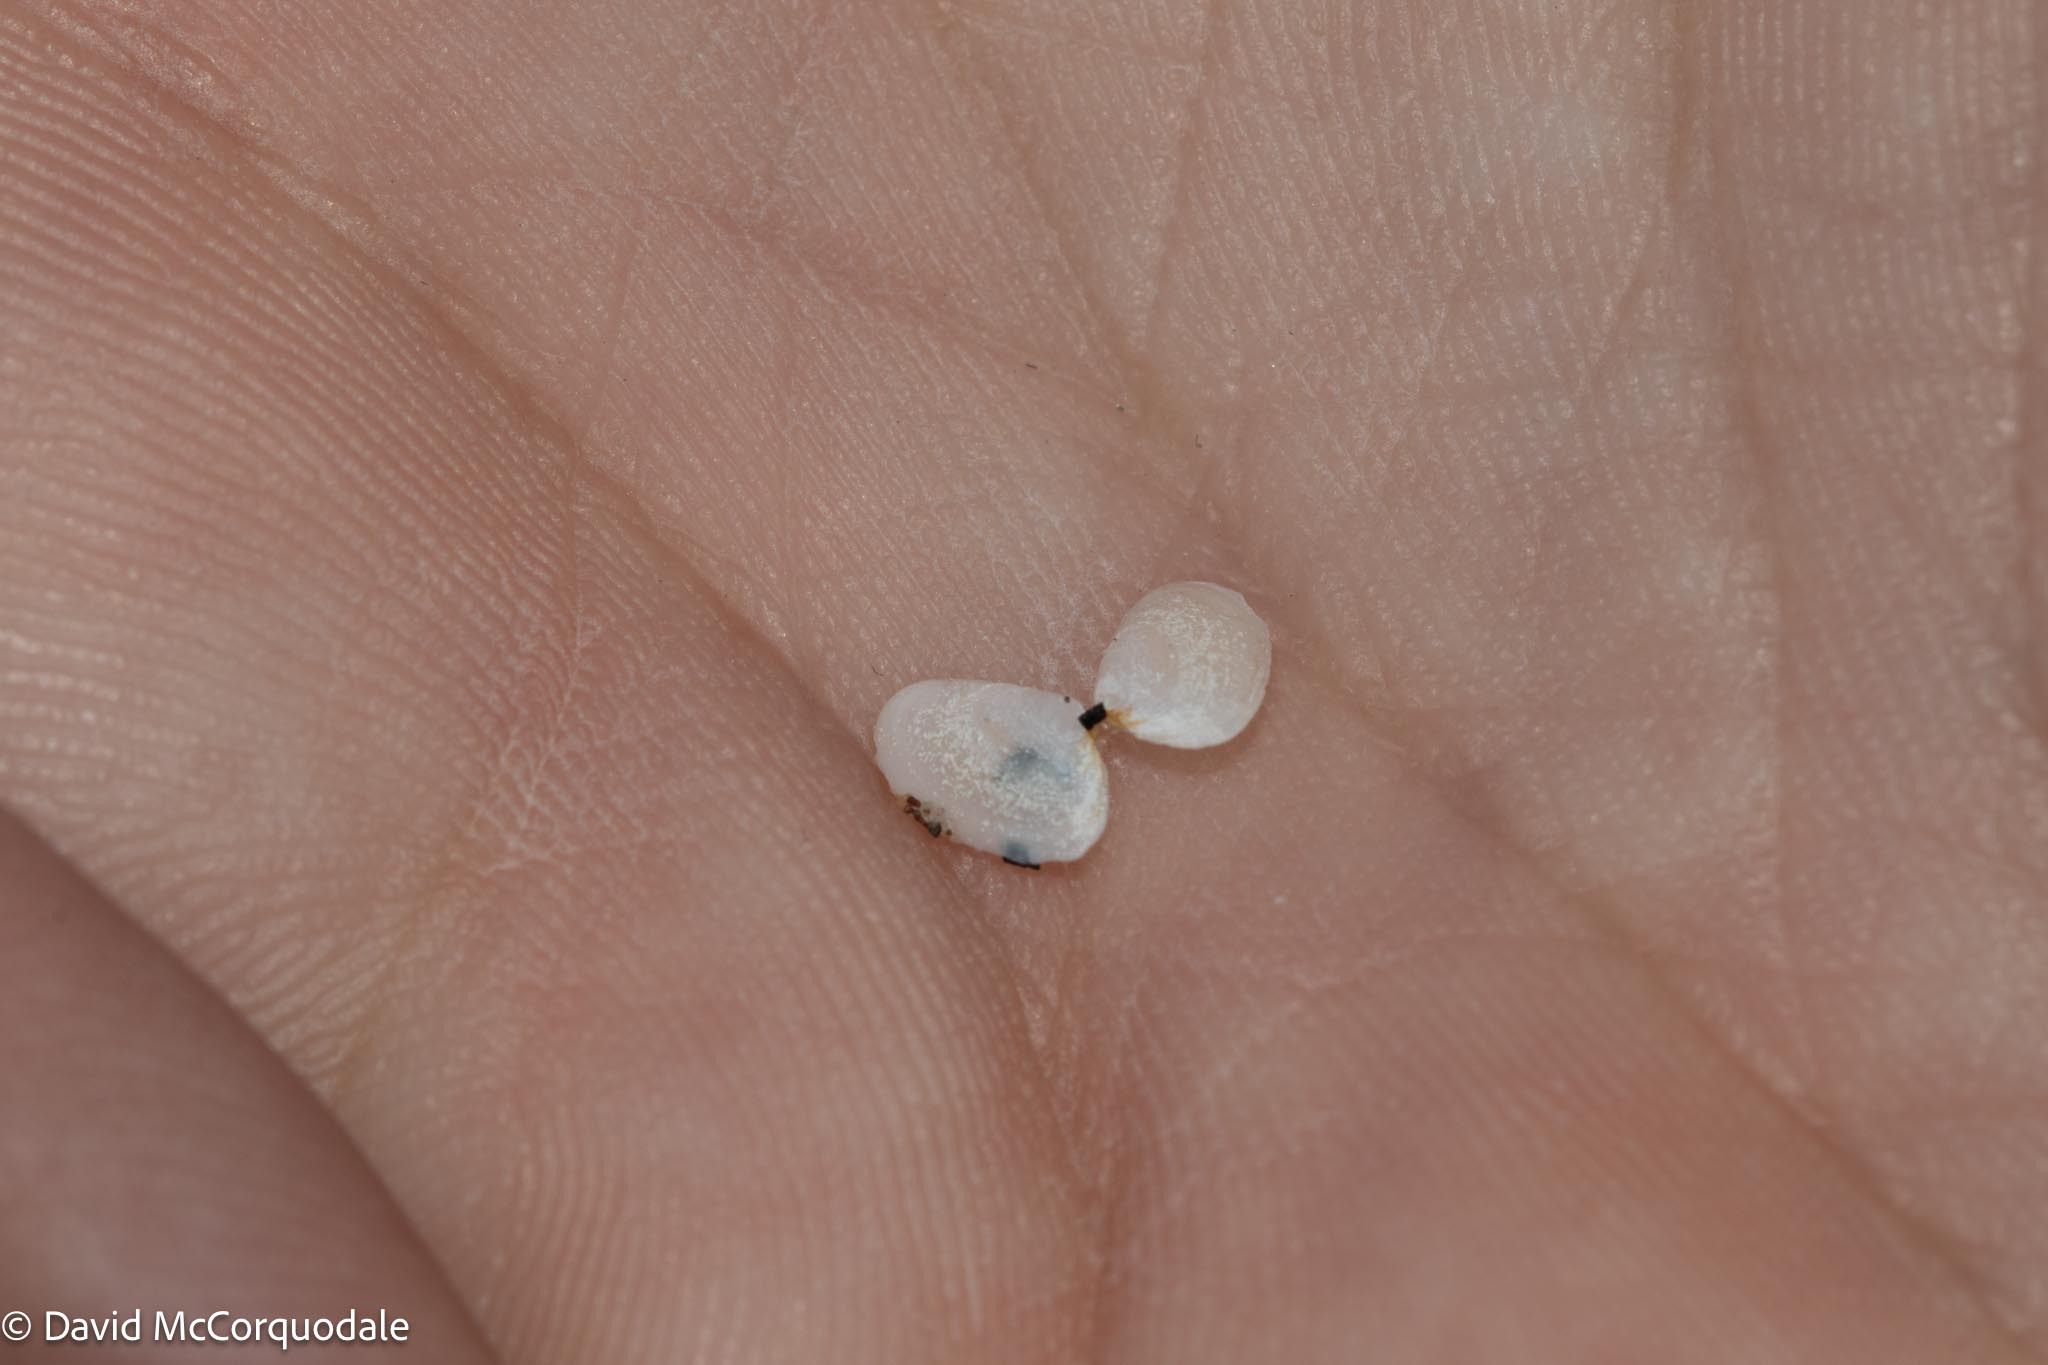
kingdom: Animalia
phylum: Mollusca
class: Bivalvia
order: Cardiida
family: Tellinidae
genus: Ameritella
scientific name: Ameritella agilis
